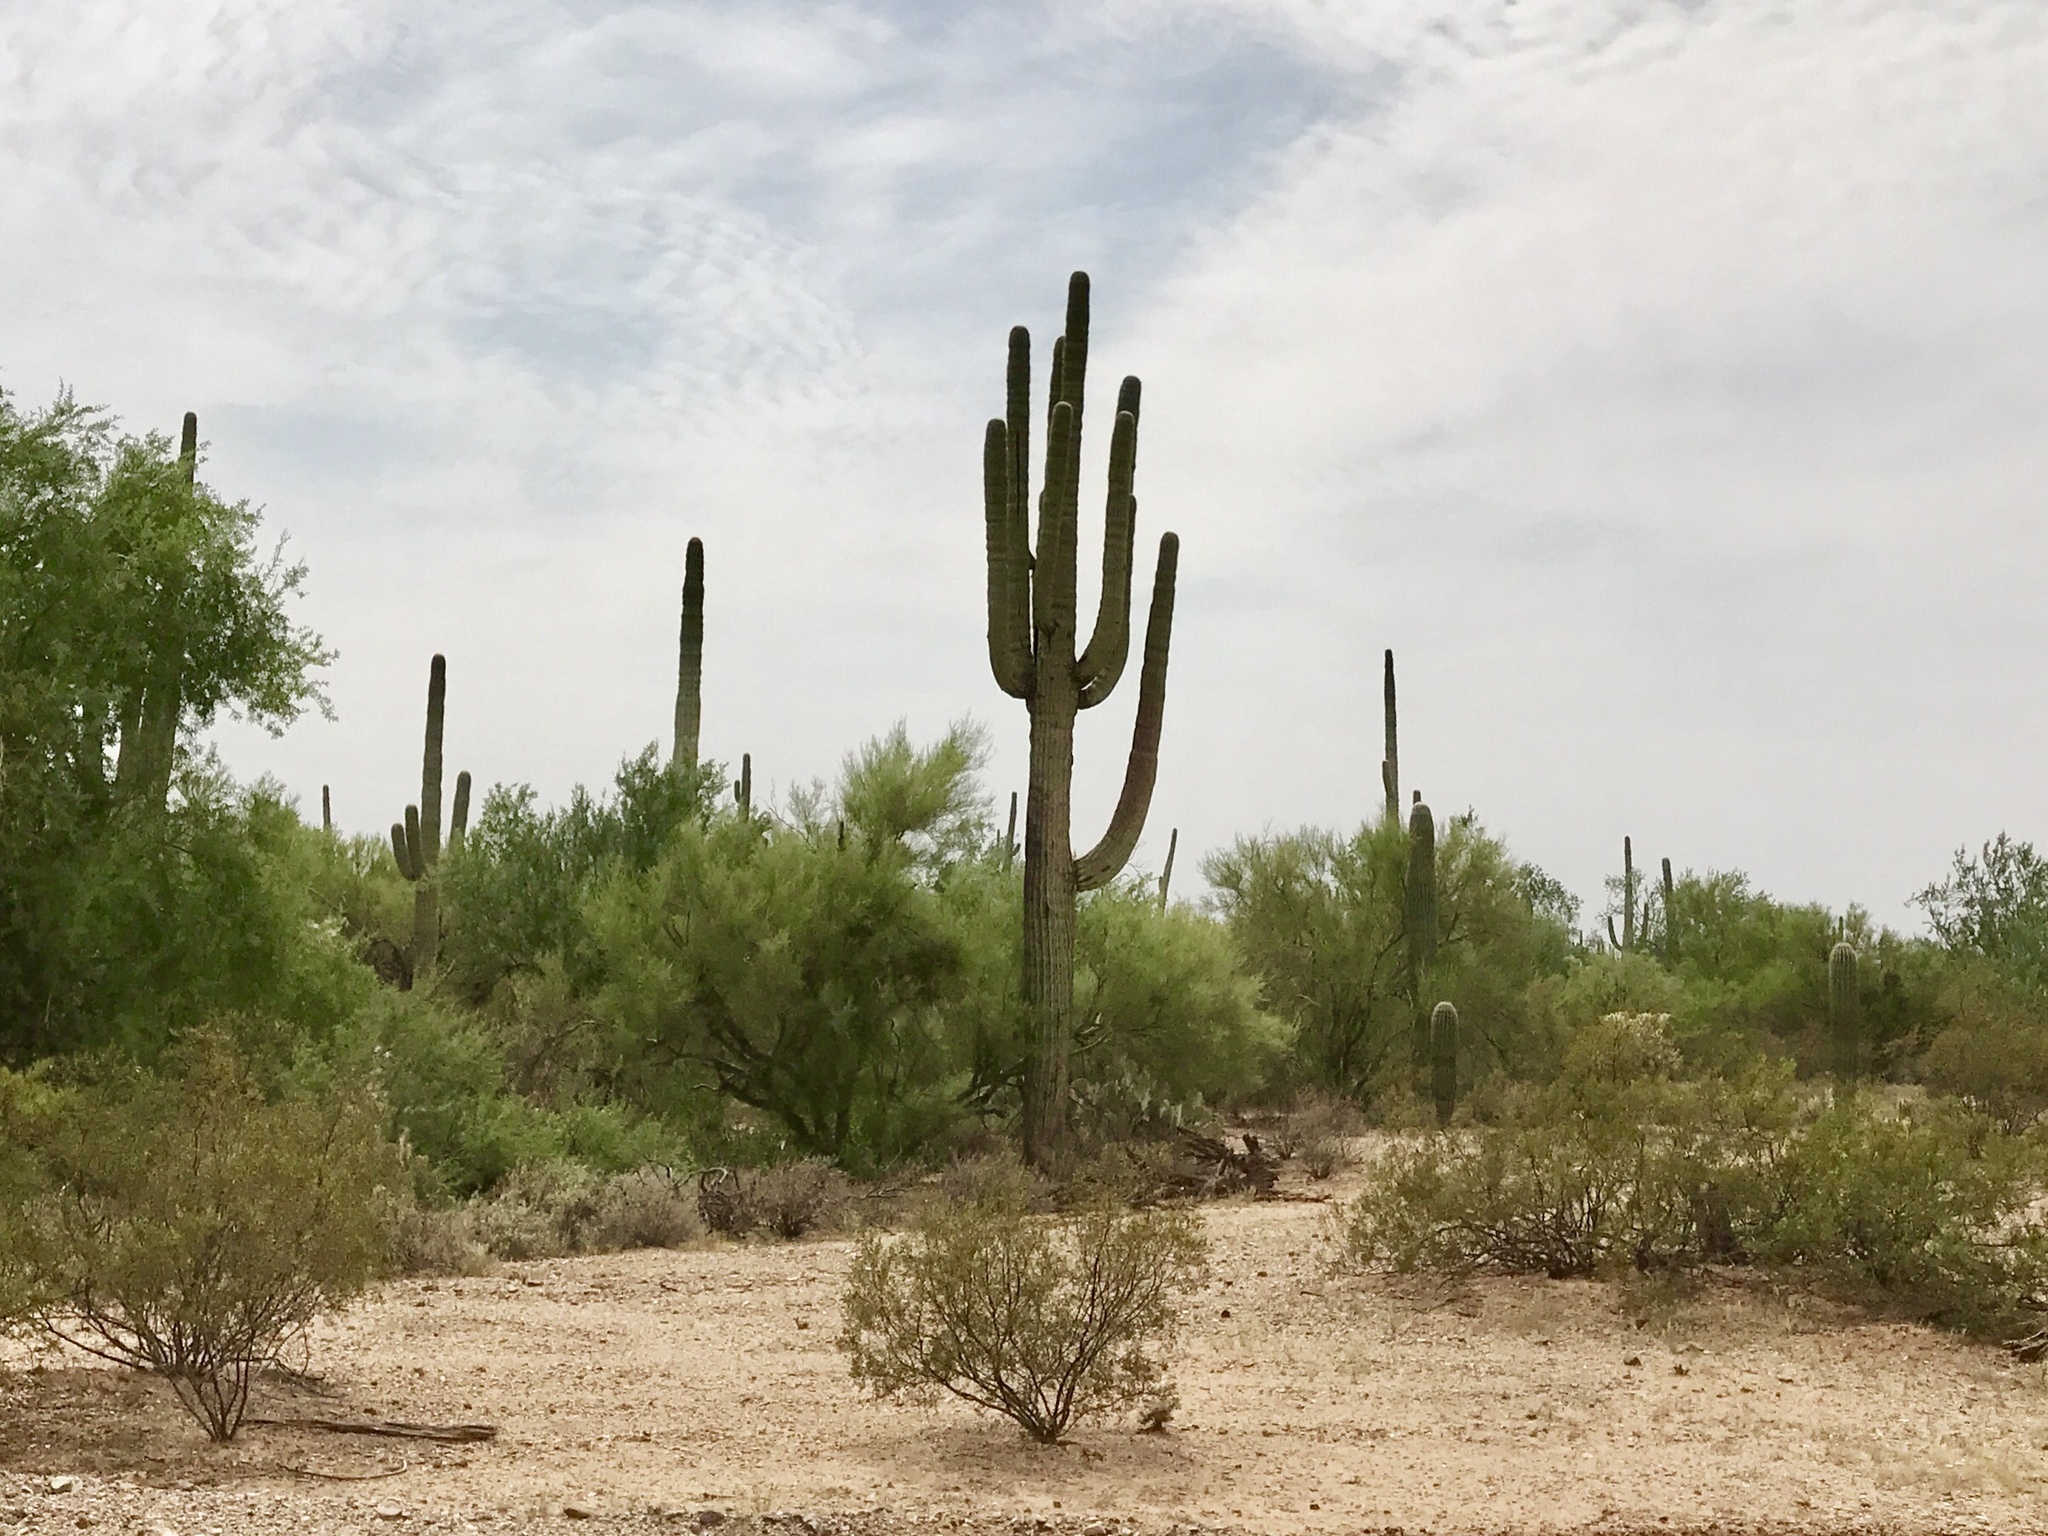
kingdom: Plantae
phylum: Tracheophyta
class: Magnoliopsida
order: Caryophyllales
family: Cactaceae
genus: Carnegiea
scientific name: Carnegiea gigantea
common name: Saguaro
